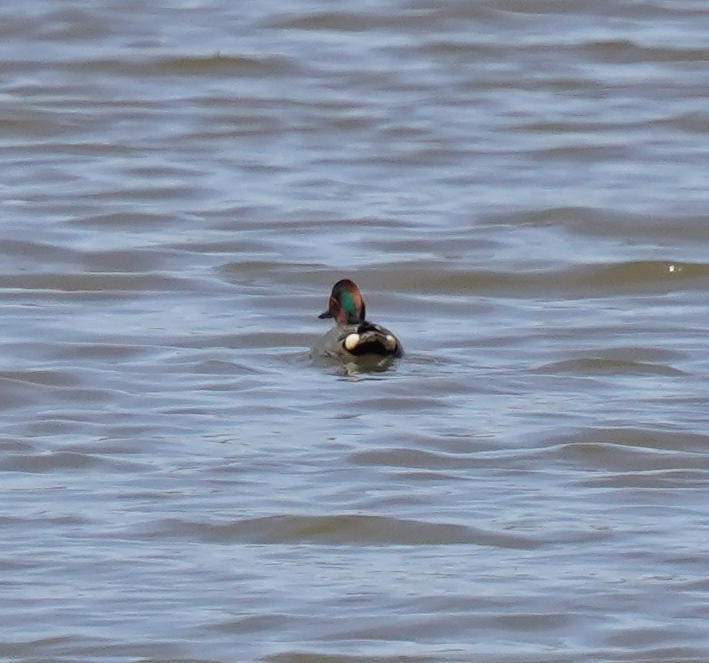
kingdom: Animalia
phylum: Chordata
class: Aves
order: Anseriformes
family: Anatidae
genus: Anas
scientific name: Anas crecca
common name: Eurasian teal
